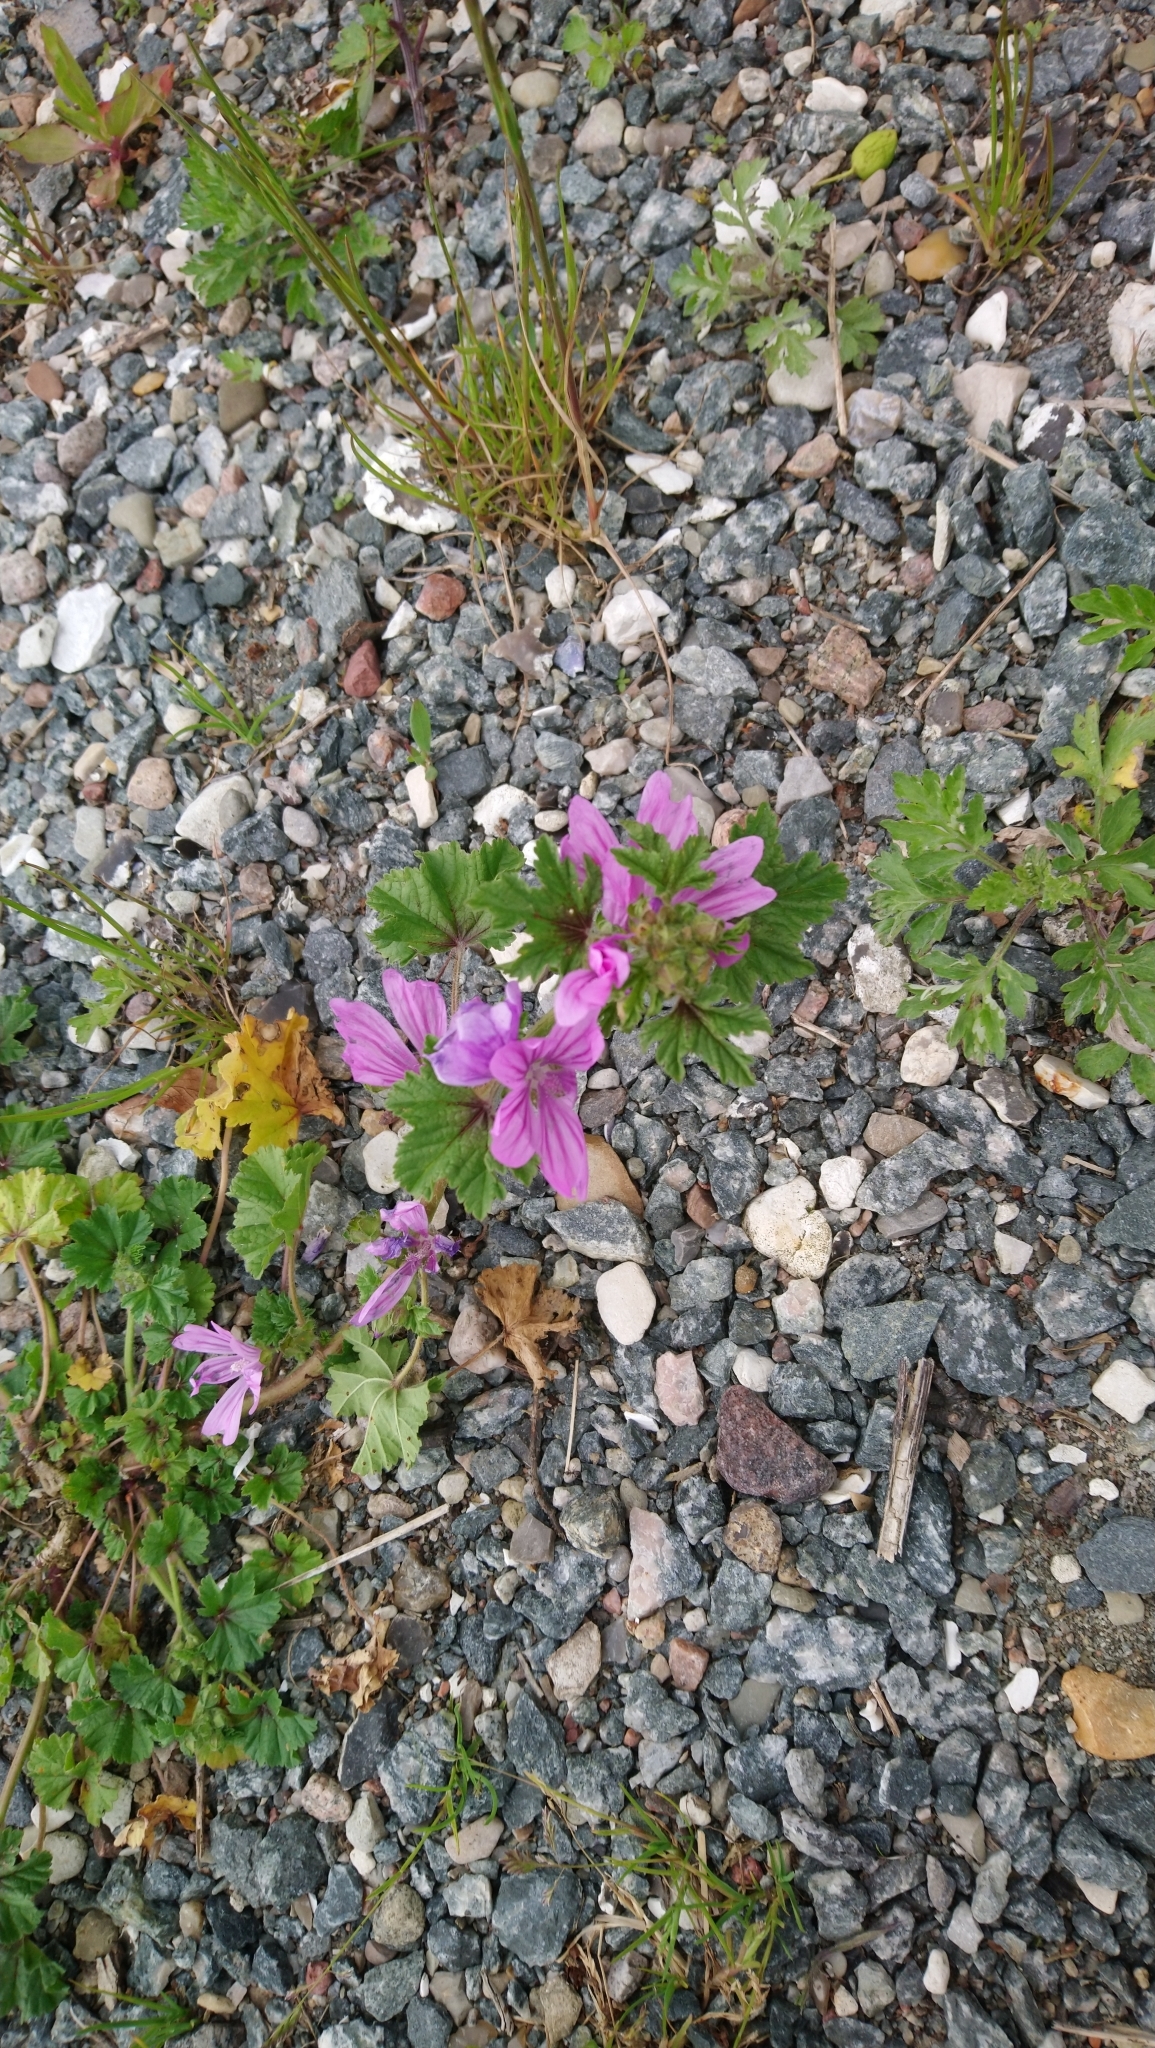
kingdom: Plantae
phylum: Tracheophyta
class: Magnoliopsida
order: Malvales
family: Malvaceae
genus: Malva
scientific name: Malva sylvestris
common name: Common mallow
